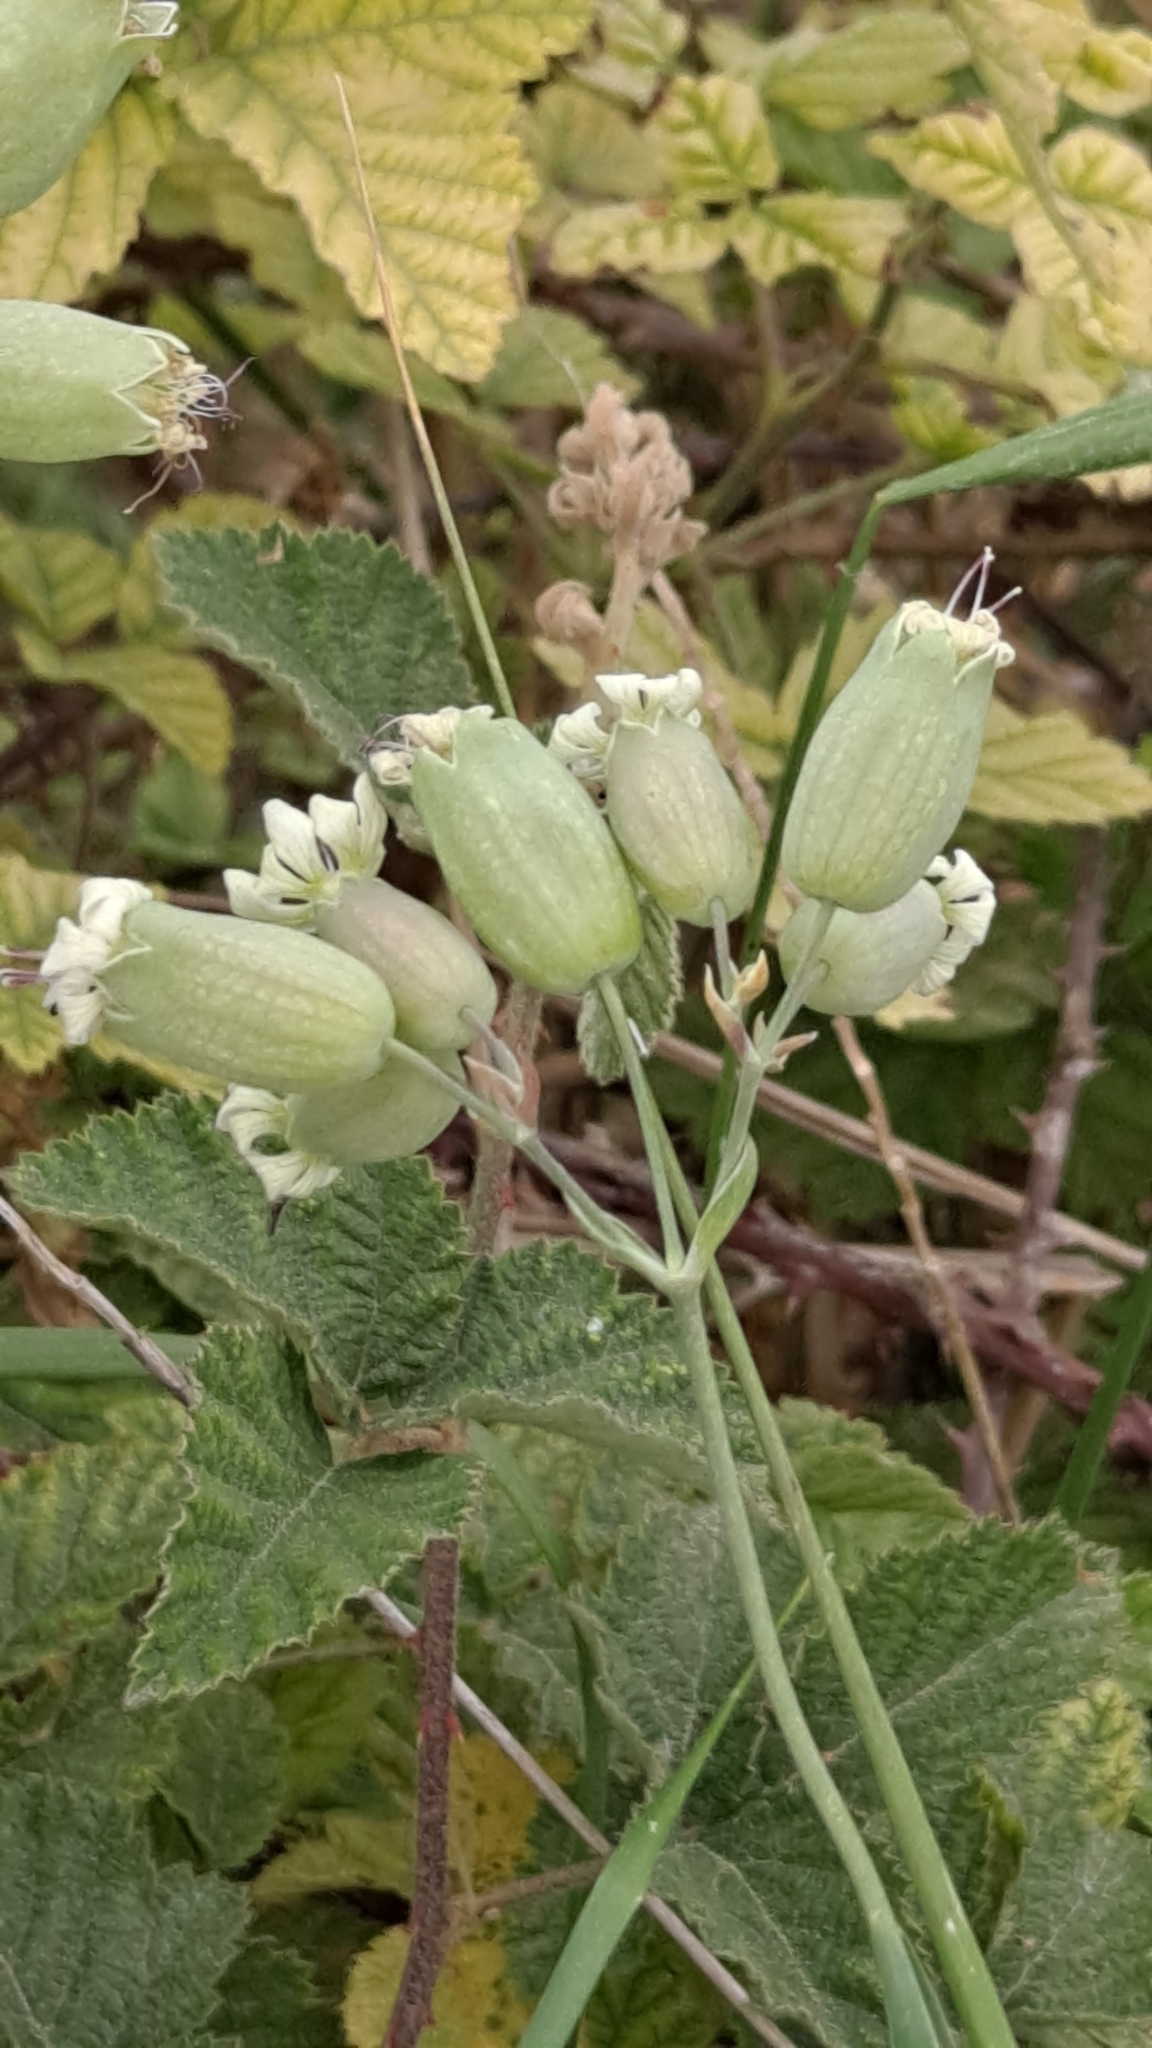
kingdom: Plantae
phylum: Tracheophyta
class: Magnoliopsida
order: Caryophyllales
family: Caryophyllaceae
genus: Silene
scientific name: Silene vulgaris
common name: Bladder campion
